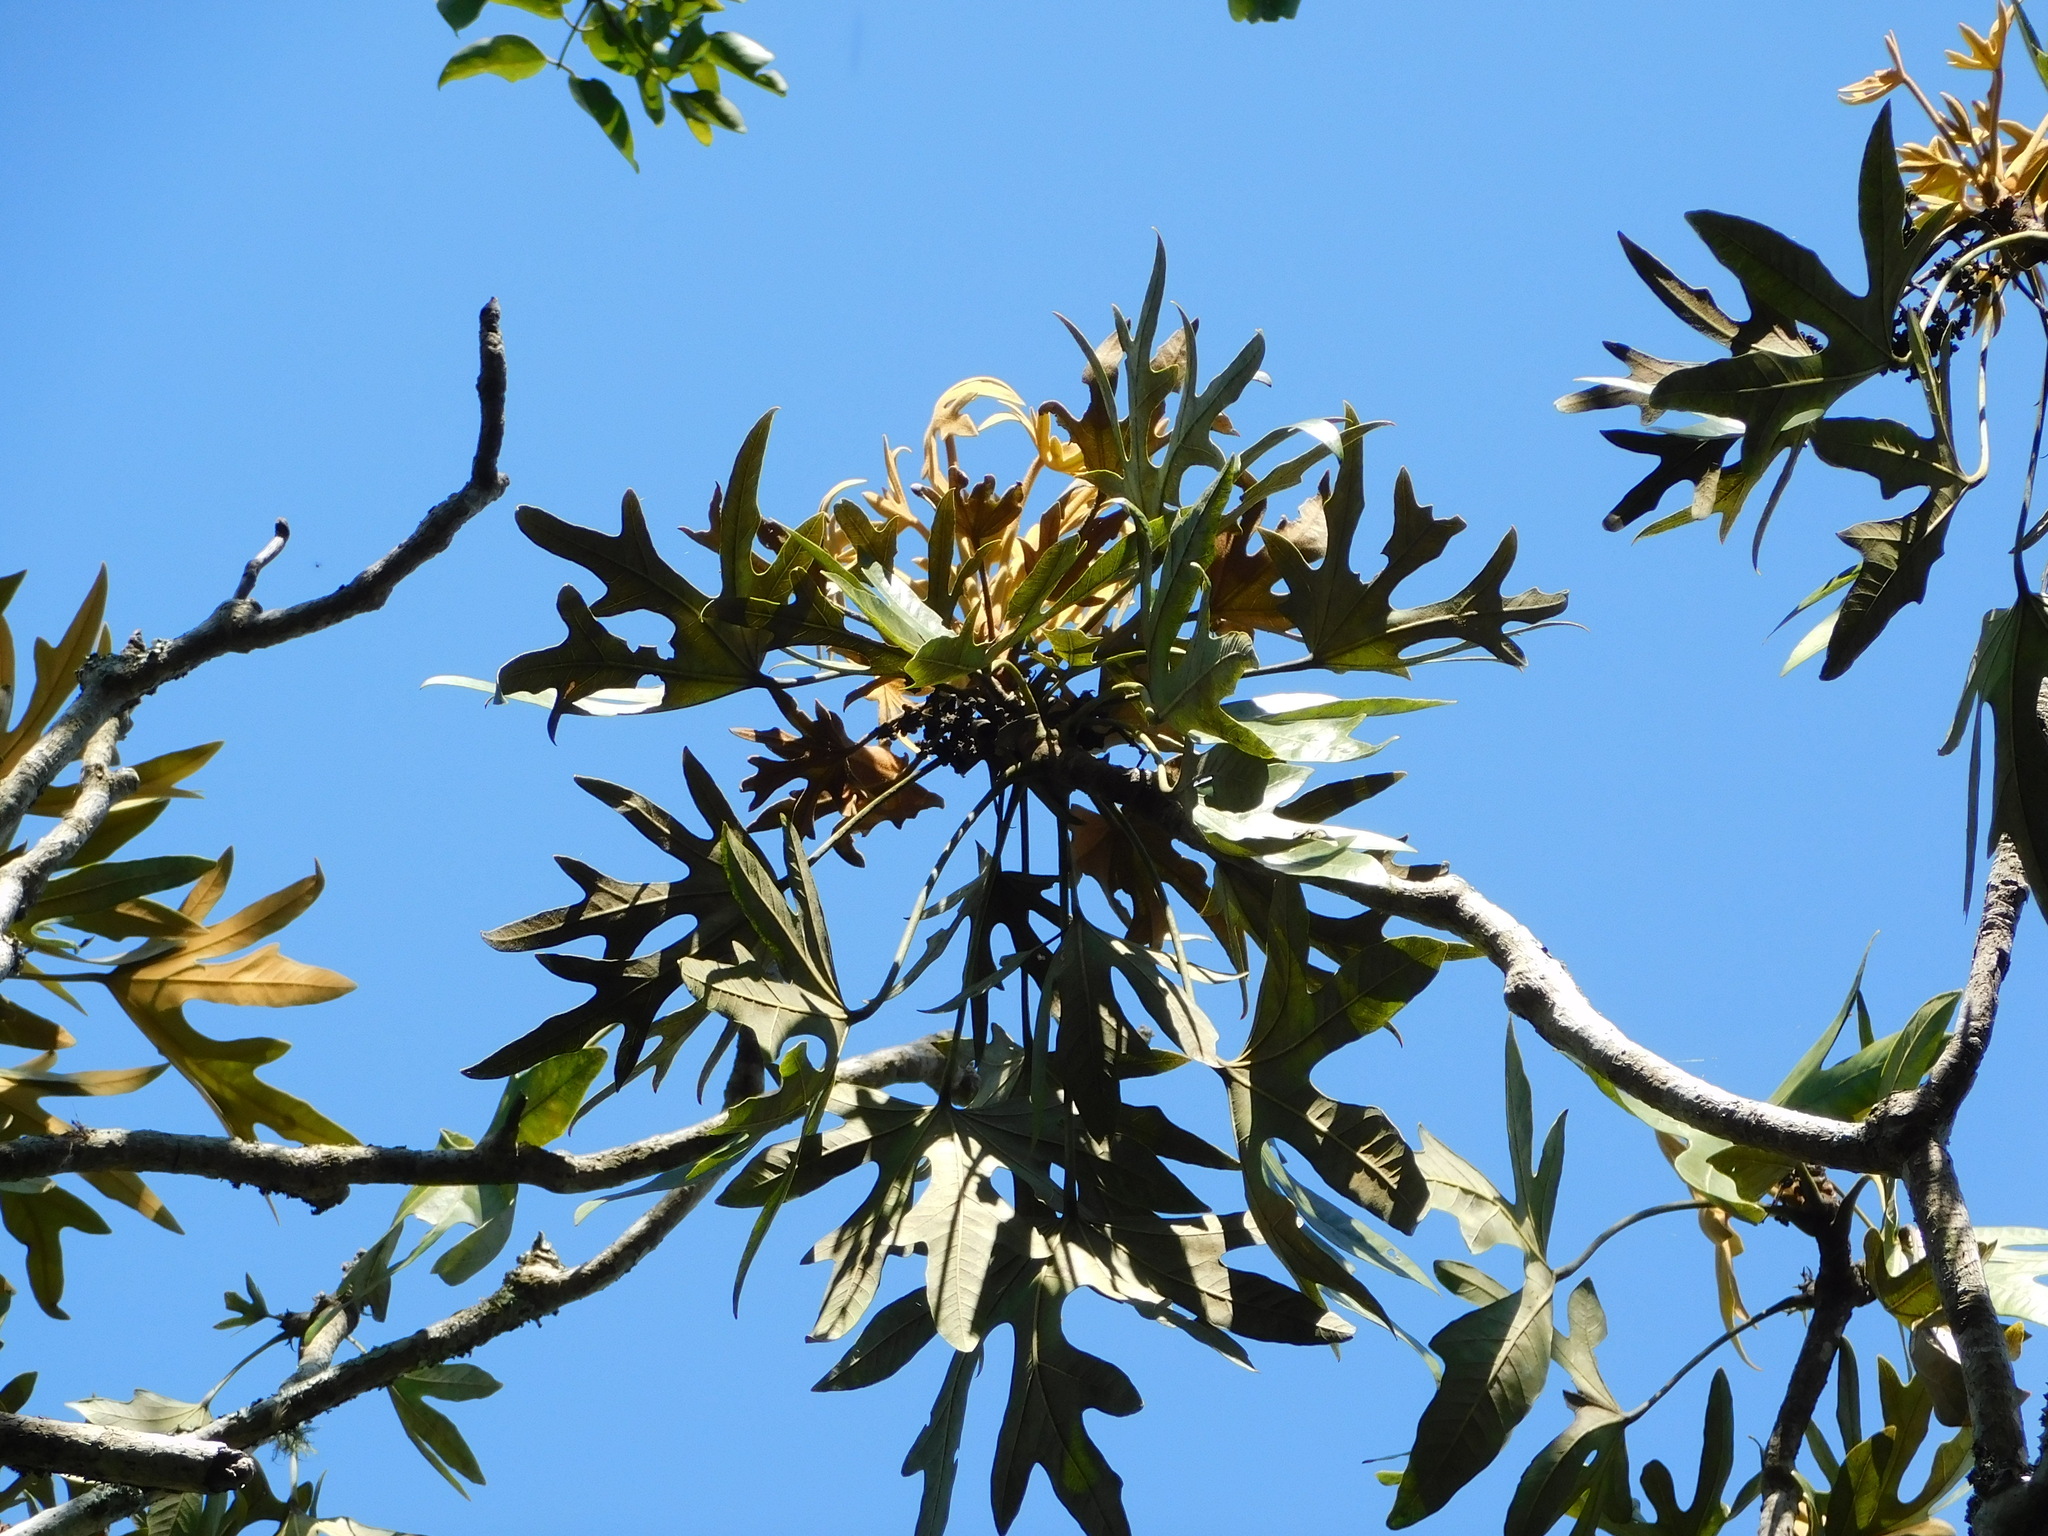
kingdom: Plantae
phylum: Tracheophyta
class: Magnoliopsida
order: Apiales
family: Araliaceae
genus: Oreopanax
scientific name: Oreopanax geminatus
